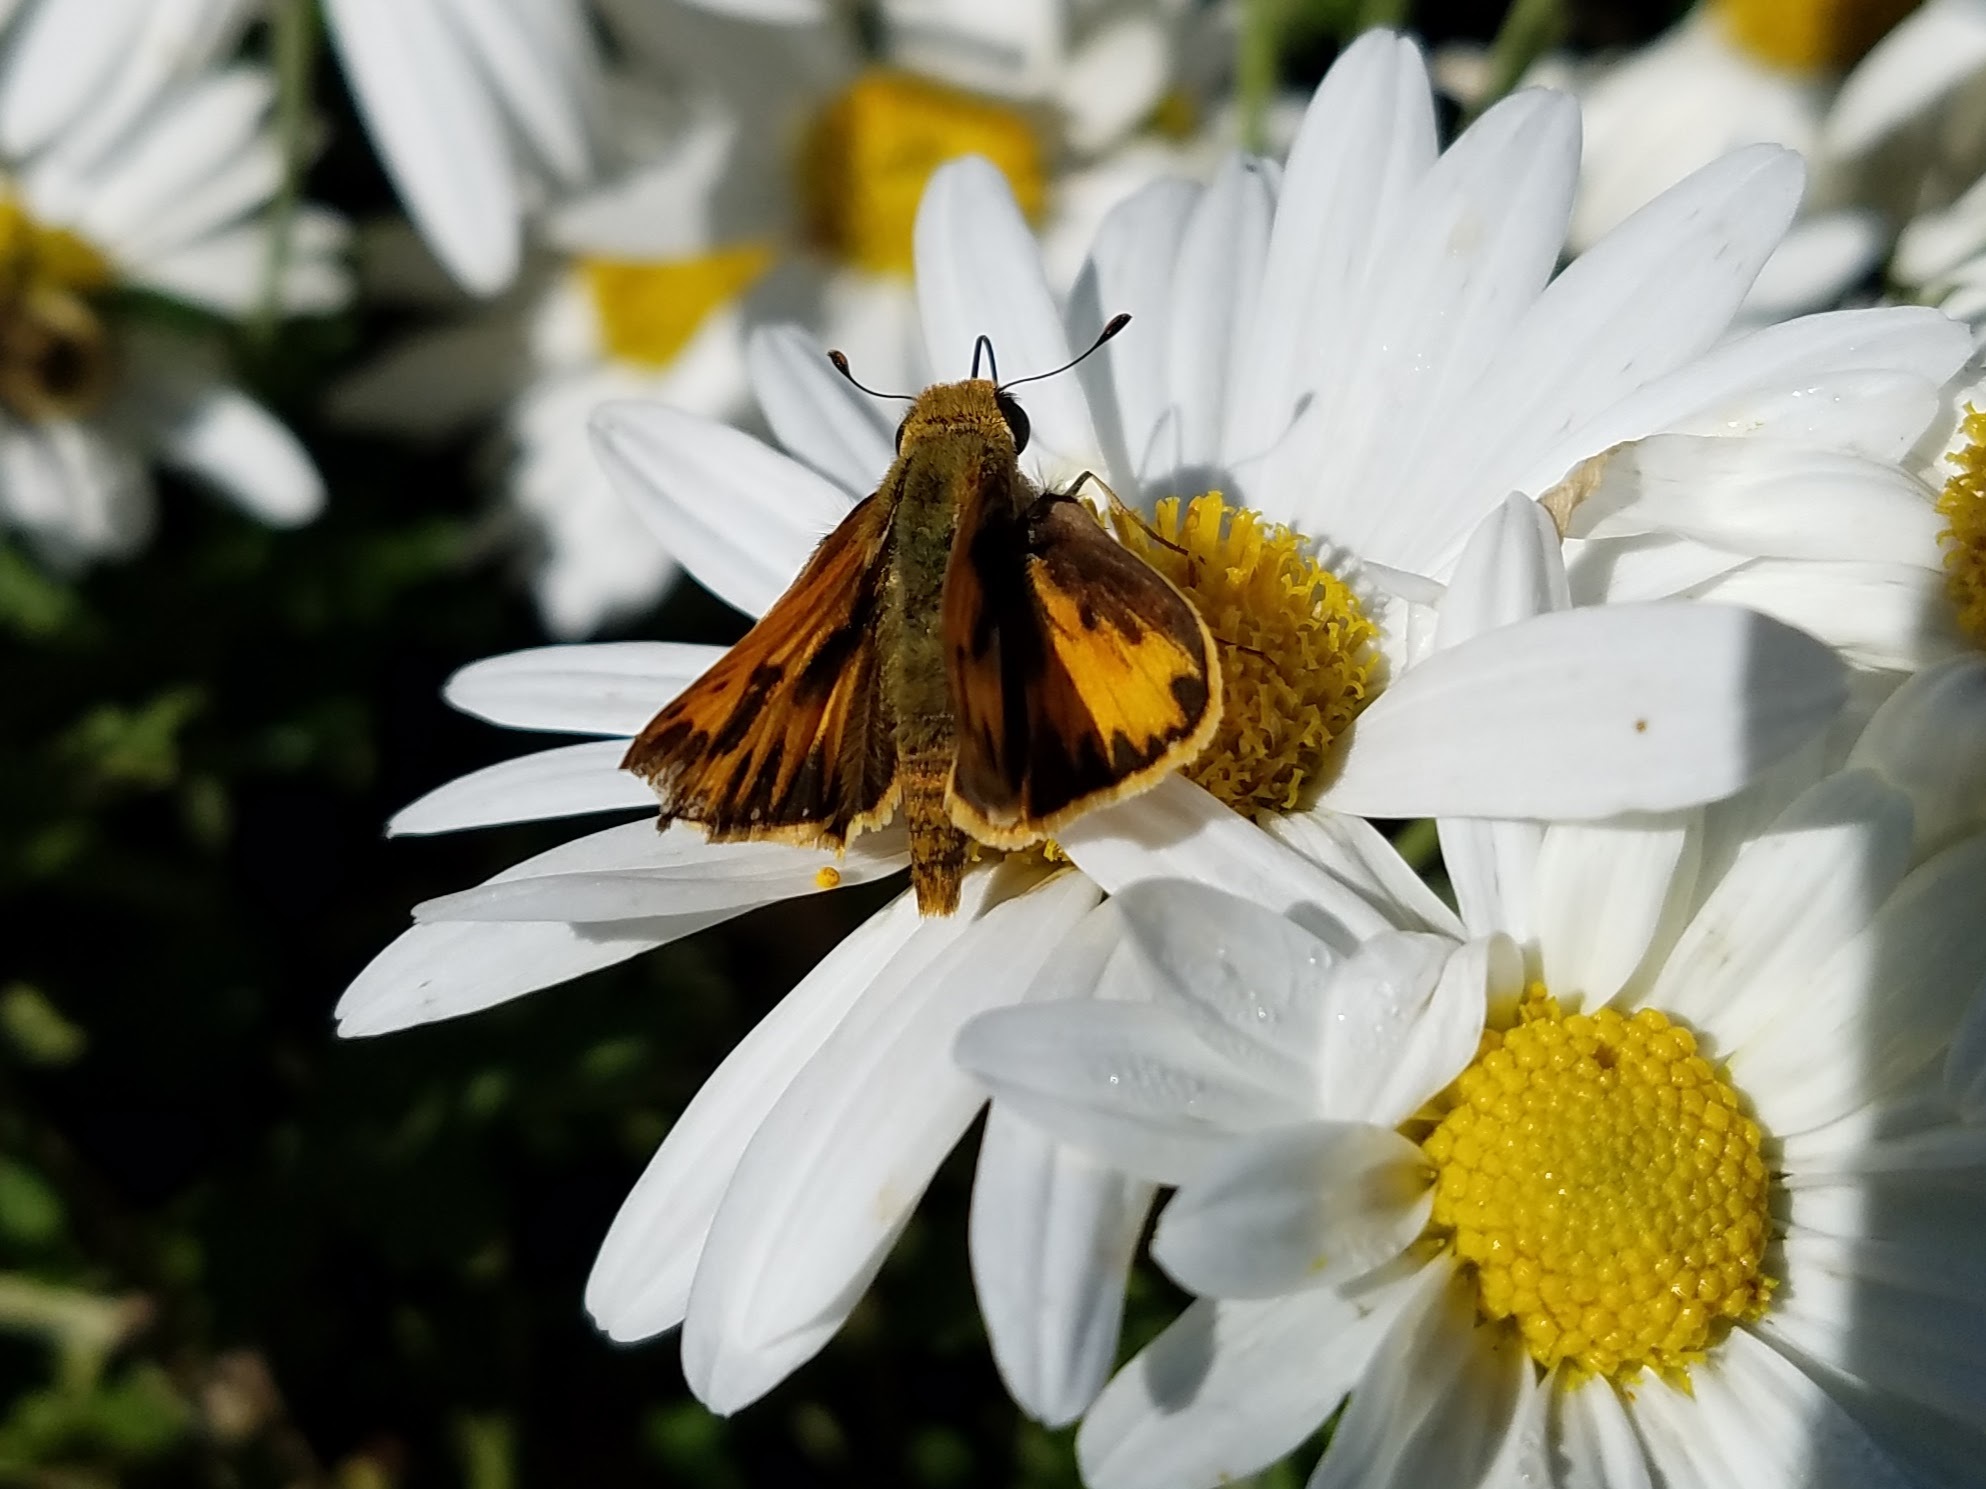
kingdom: Animalia
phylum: Arthropoda
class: Insecta
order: Lepidoptera
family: Hesperiidae
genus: Hylephila
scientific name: Hylephila phyleus
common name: Fiery skipper
